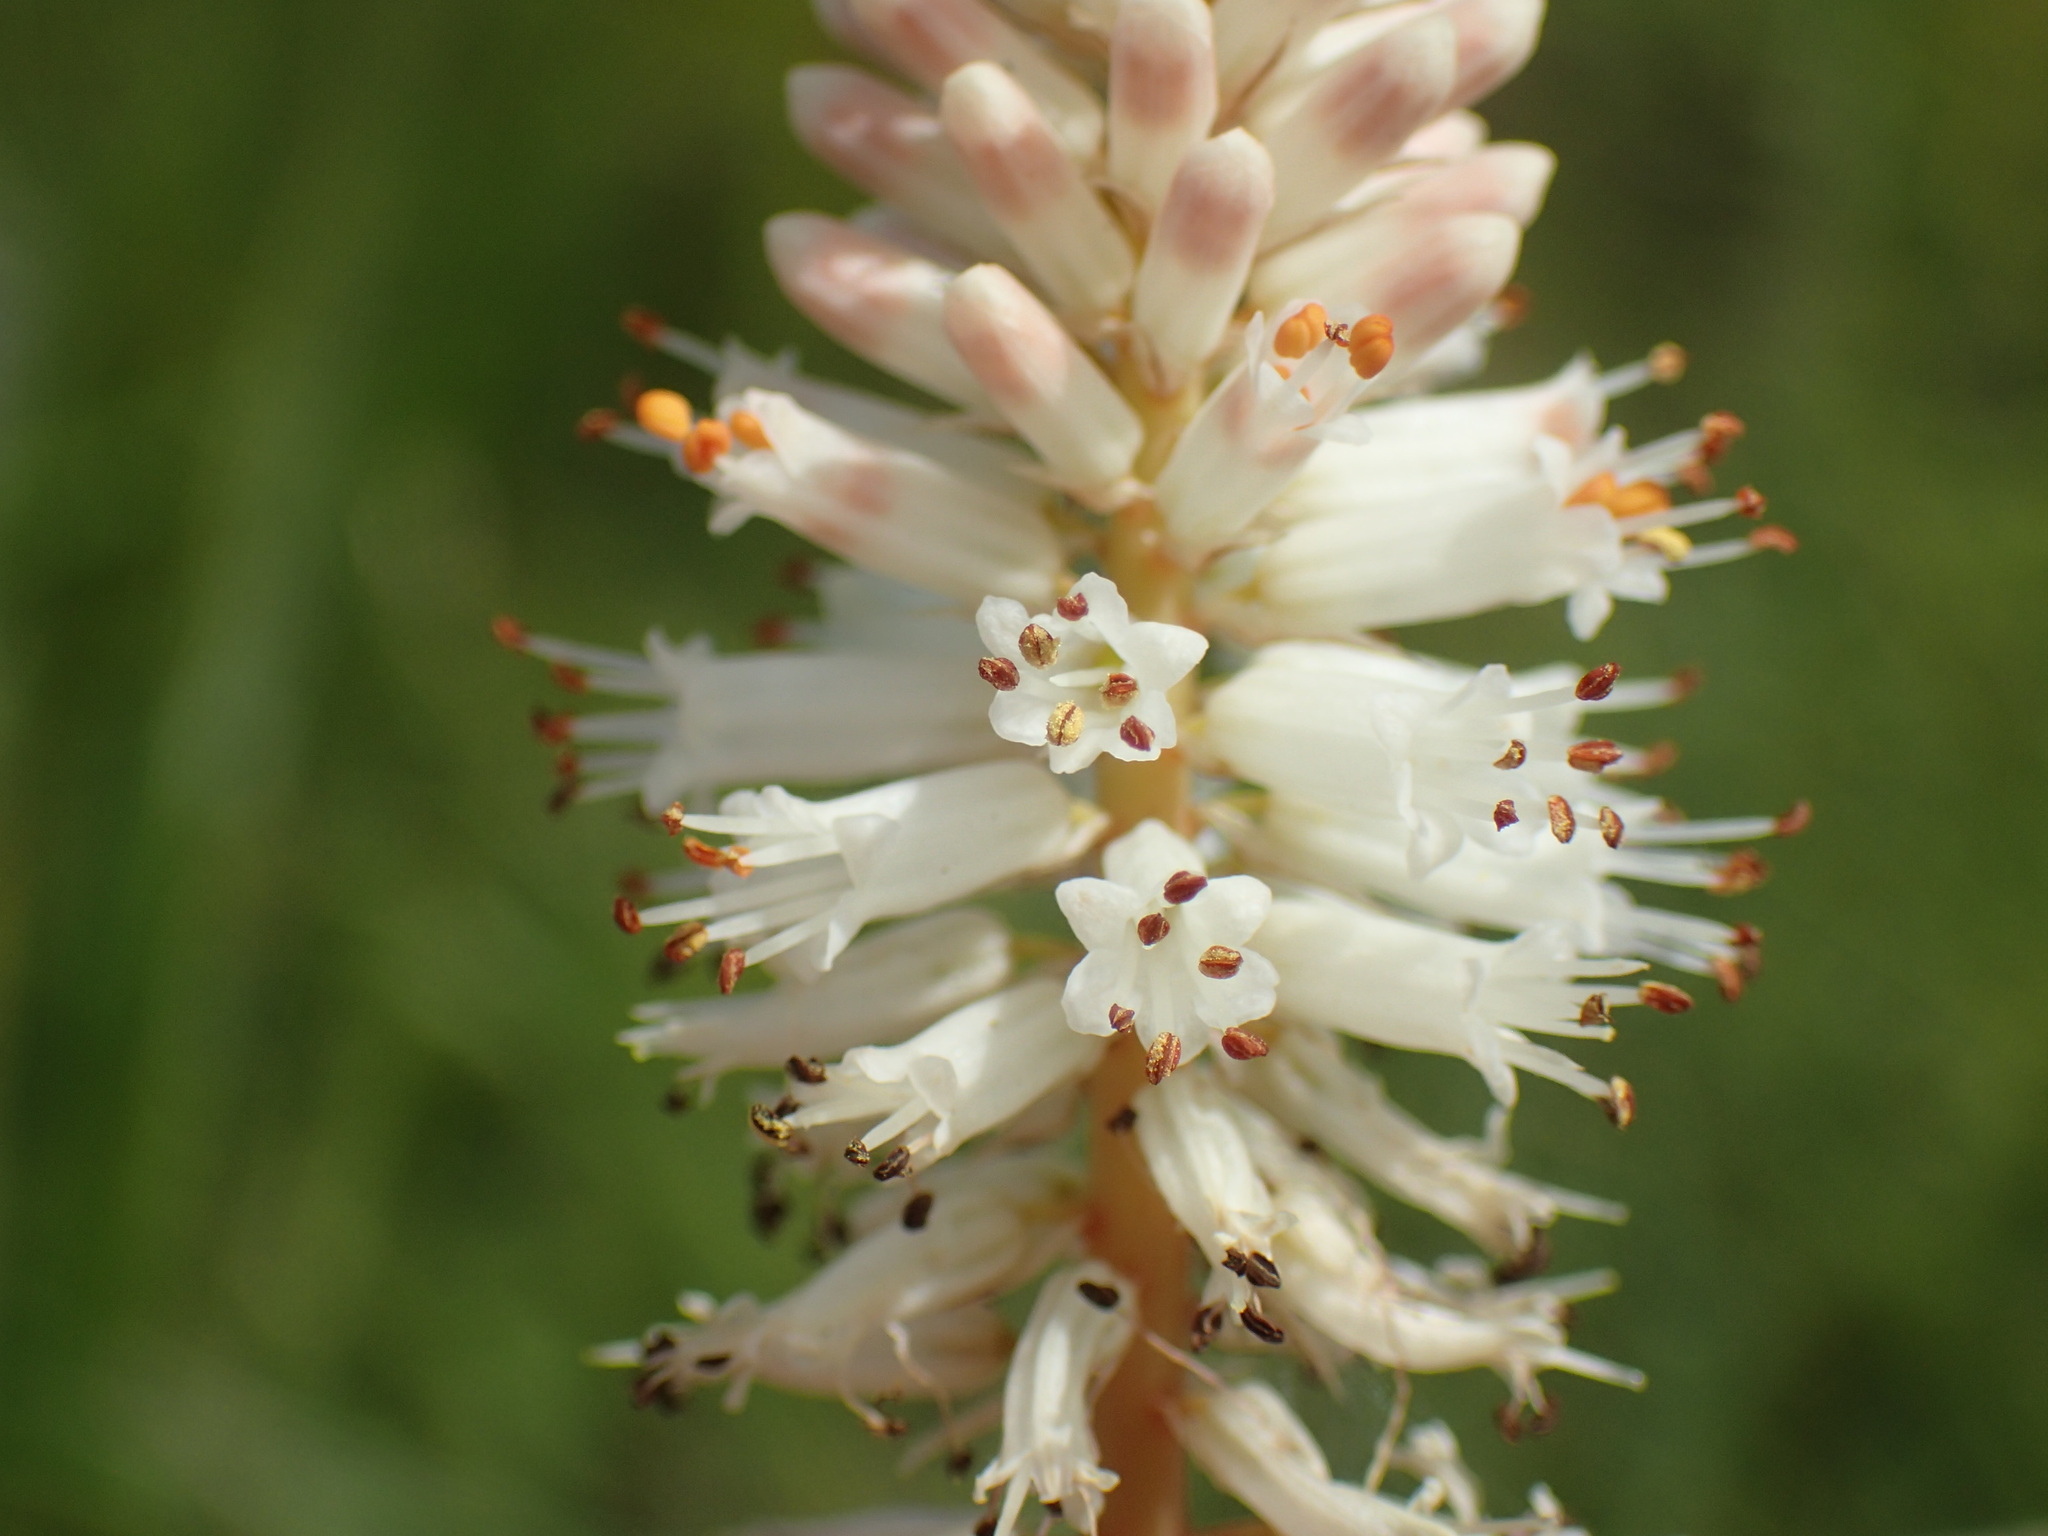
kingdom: Plantae
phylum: Tracheophyta
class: Liliopsida
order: Asparagales
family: Asphodelaceae
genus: Kniphofia
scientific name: Kniphofia buchananii
